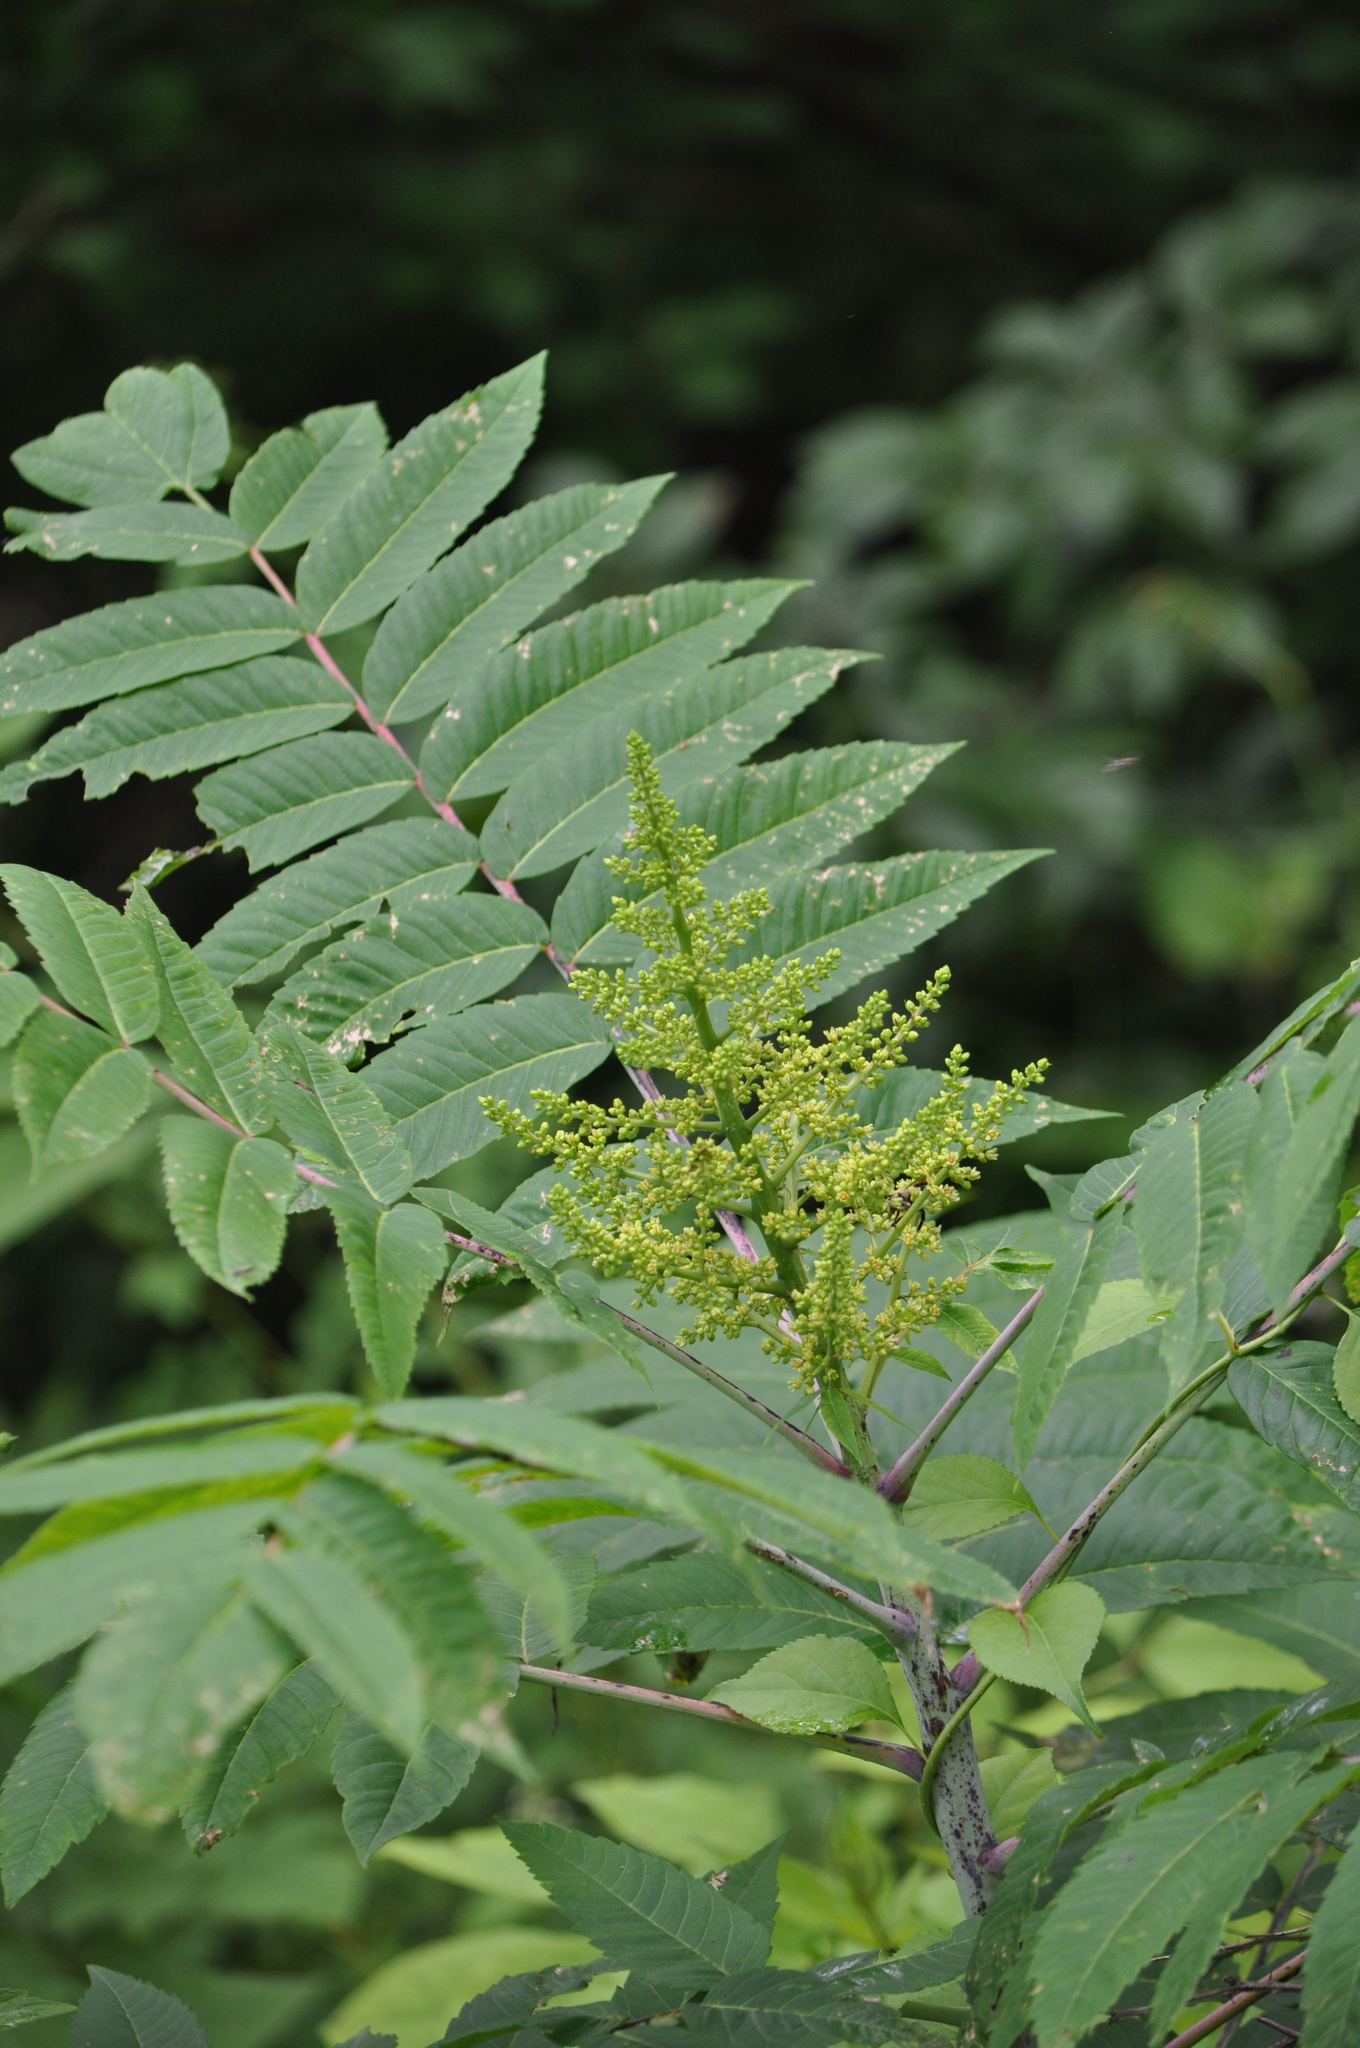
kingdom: Plantae
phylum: Tracheophyta
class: Magnoliopsida
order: Sapindales
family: Anacardiaceae
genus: Rhus
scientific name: Rhus glabra
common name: Scarlet sumac
